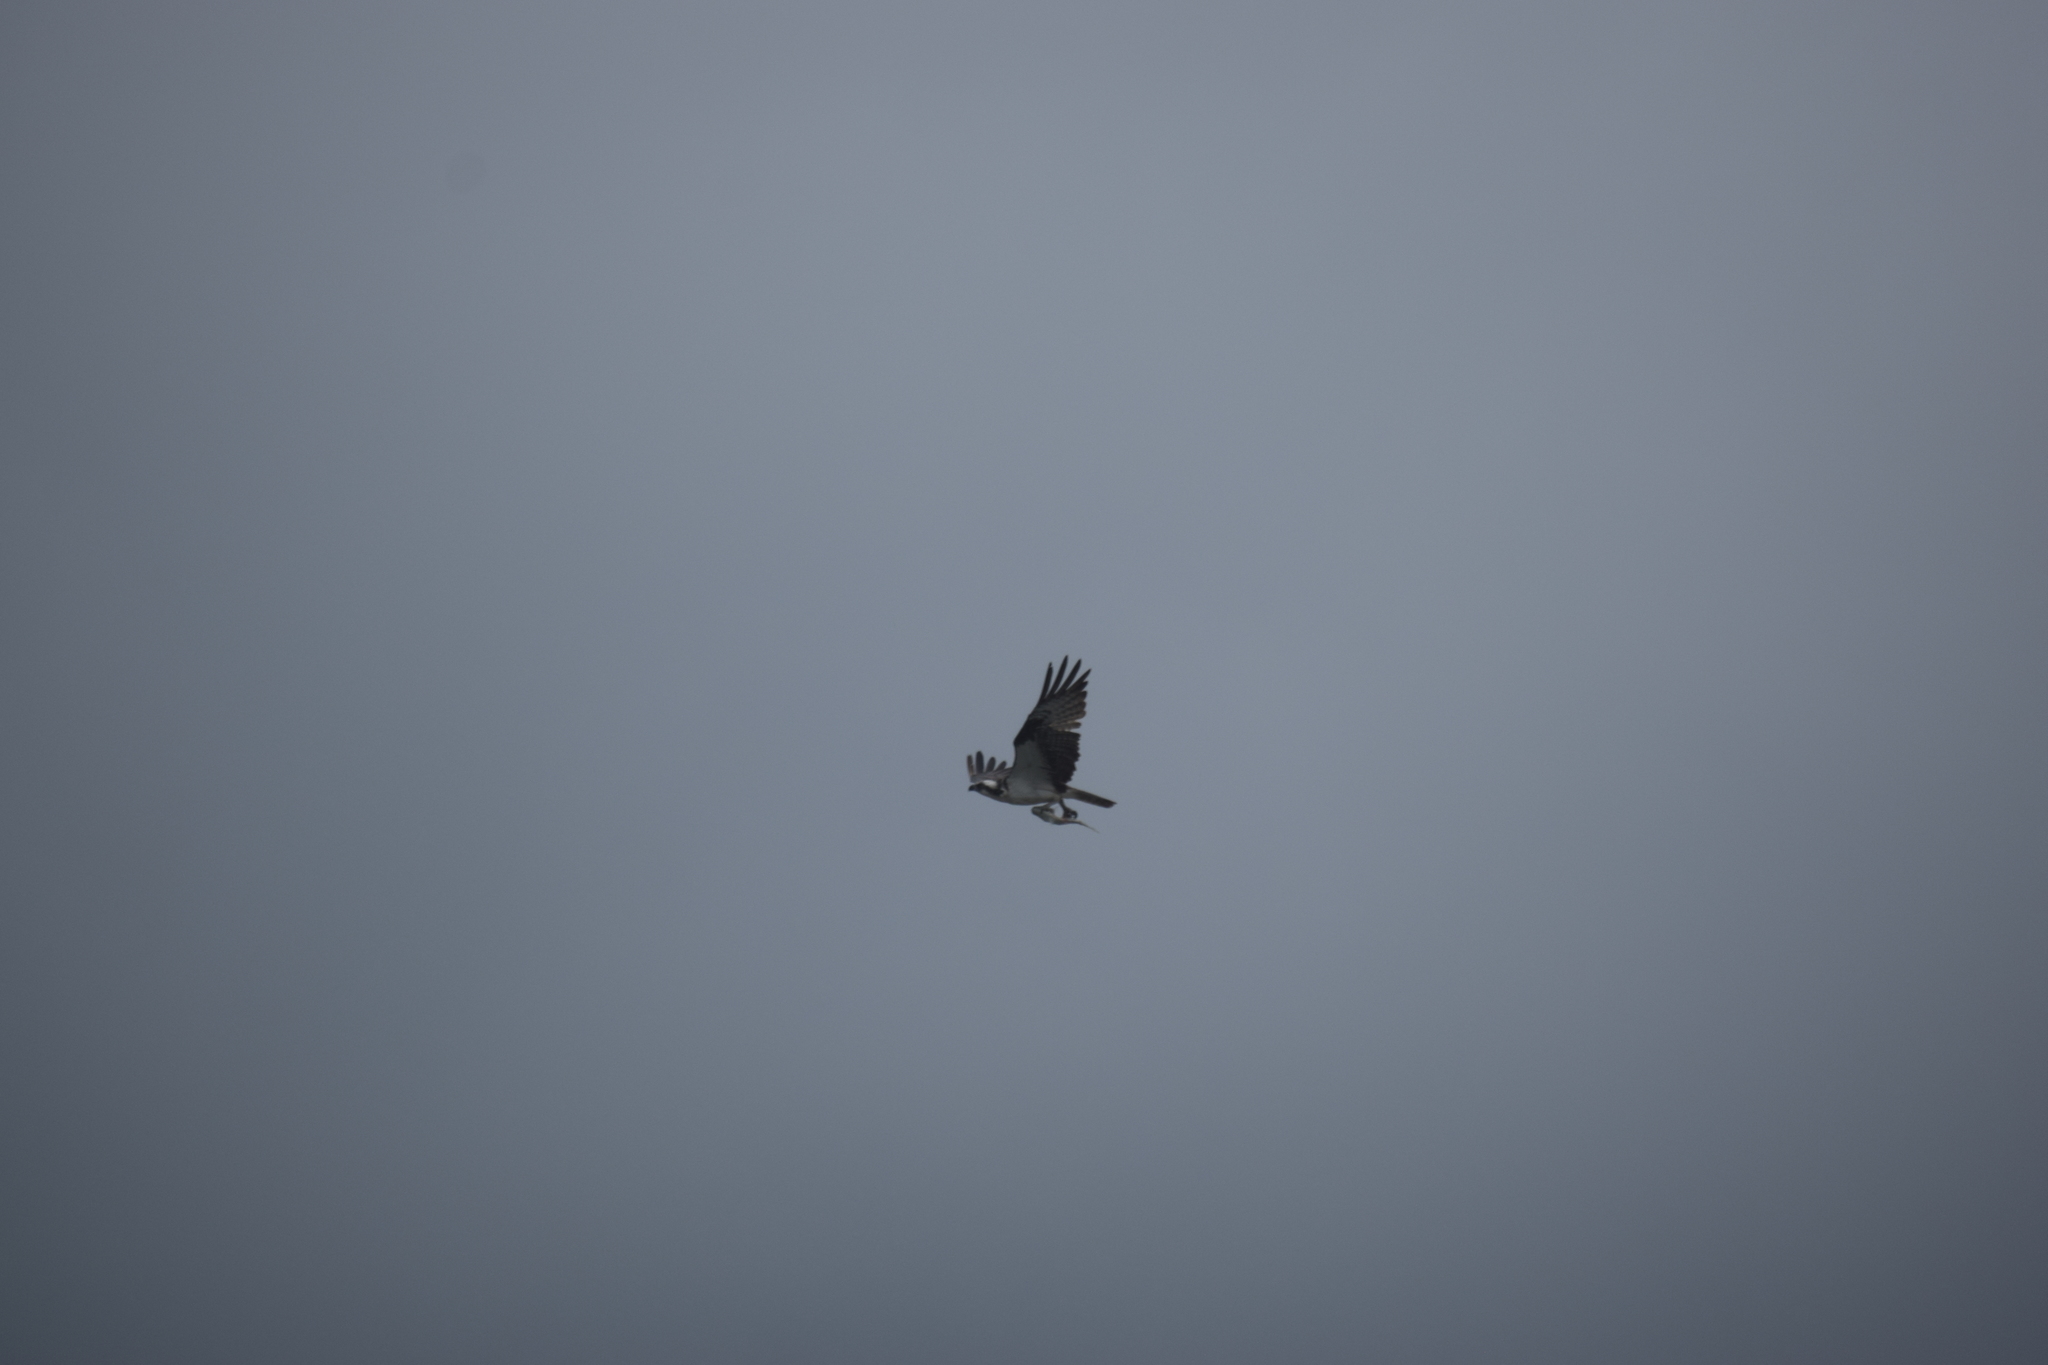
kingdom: Animalia
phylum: Chordata
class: Aves
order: Accipitriformes
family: Pandionidae
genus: Pandion
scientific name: Pandion haliaetus
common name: Osprey
